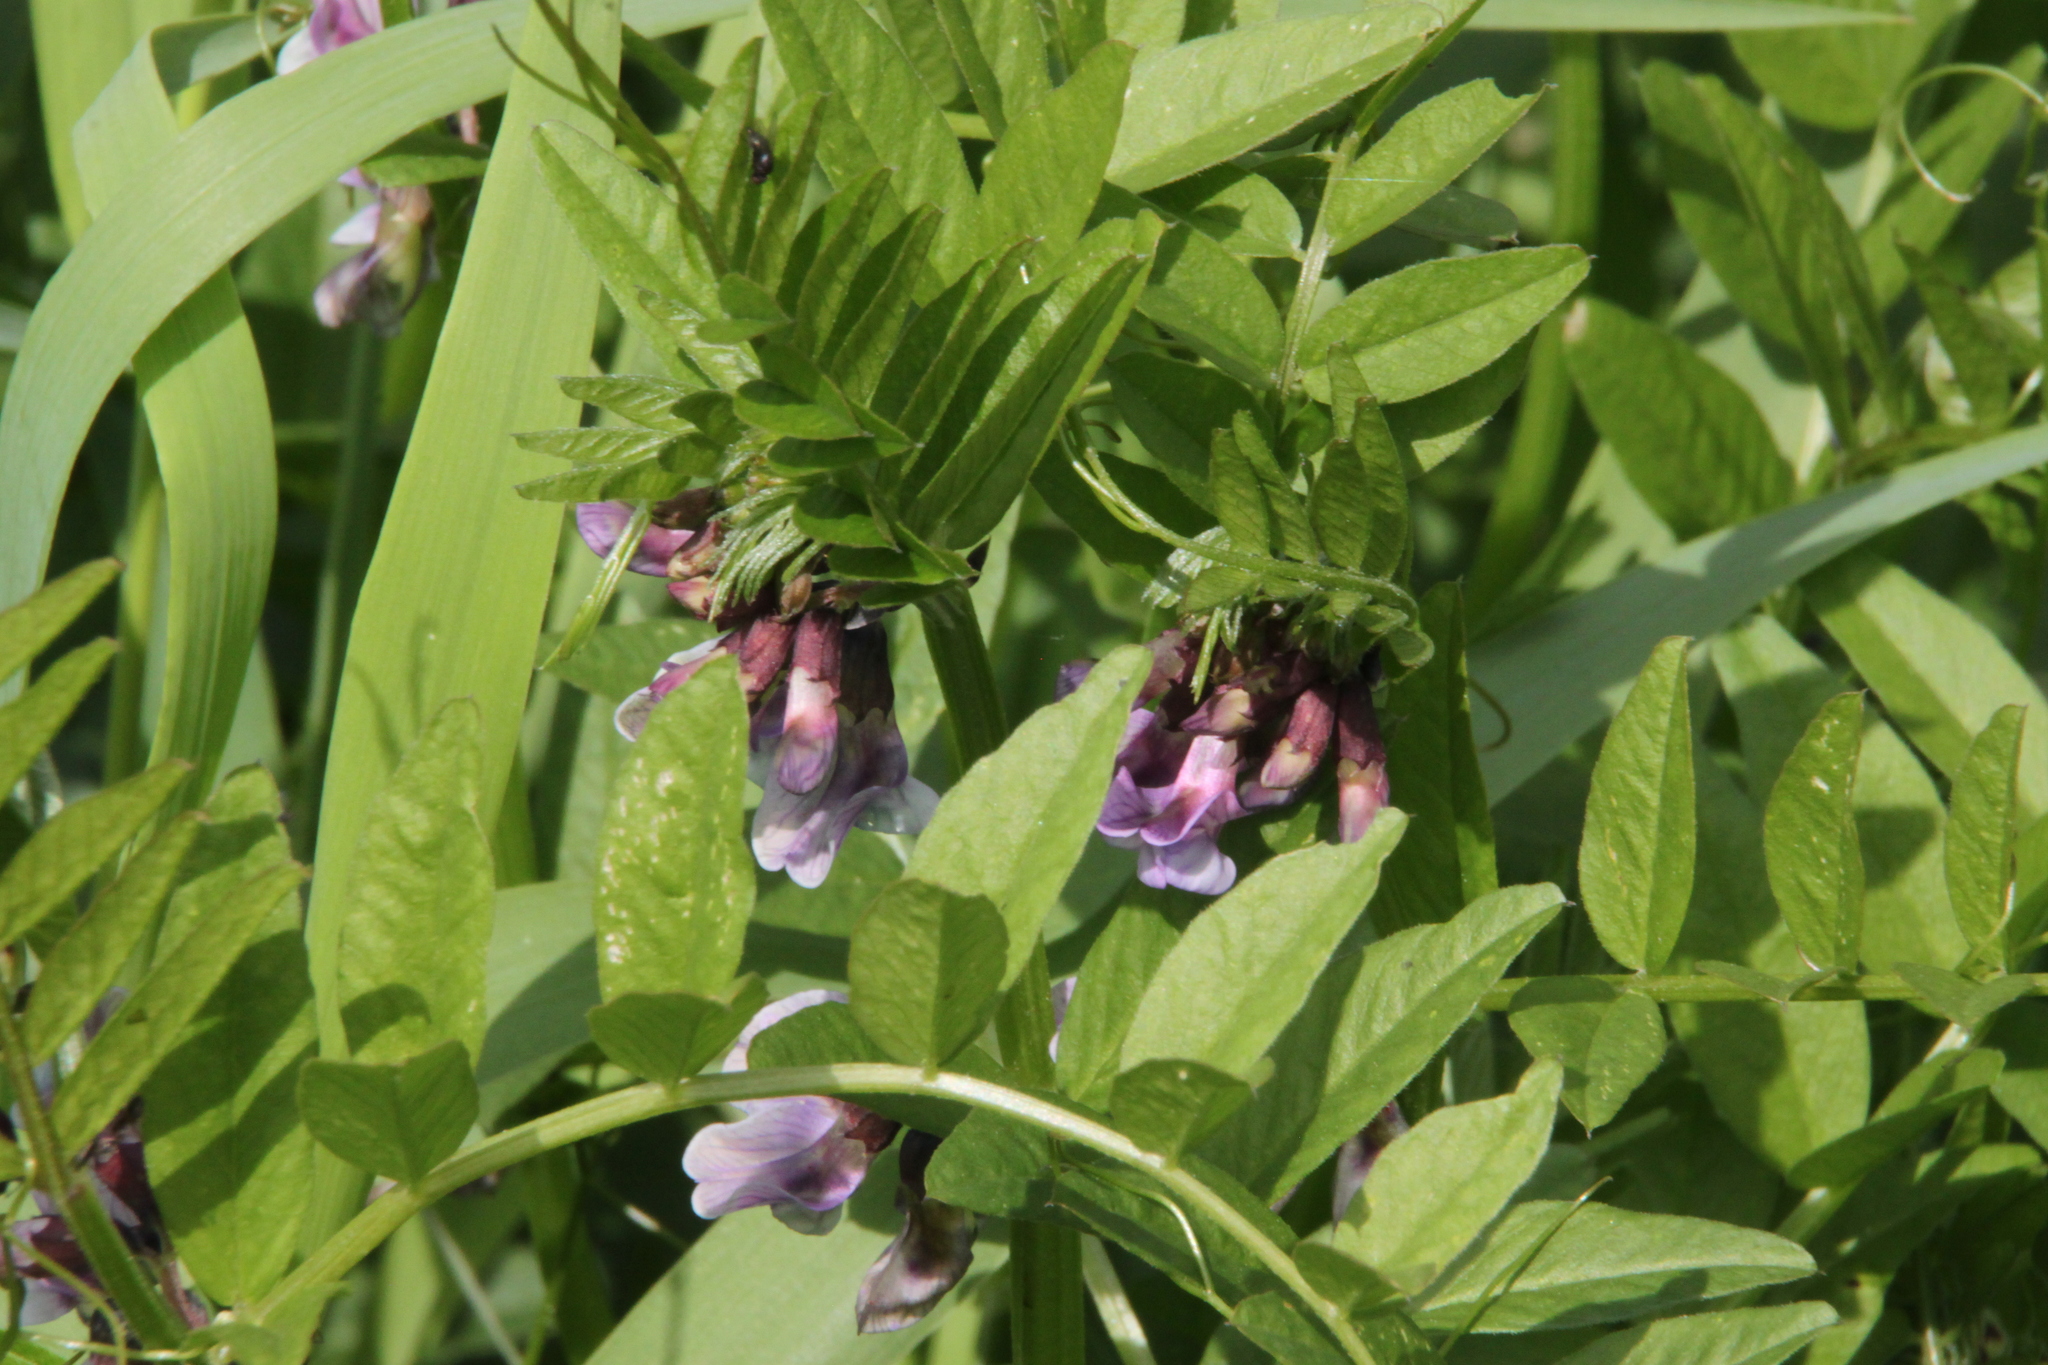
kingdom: Plantae
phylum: Tracheophyta
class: Magnoliopsida
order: Fabales
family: Fabaceae
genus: Vicia
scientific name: Vicia sepium
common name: Bush vetch
